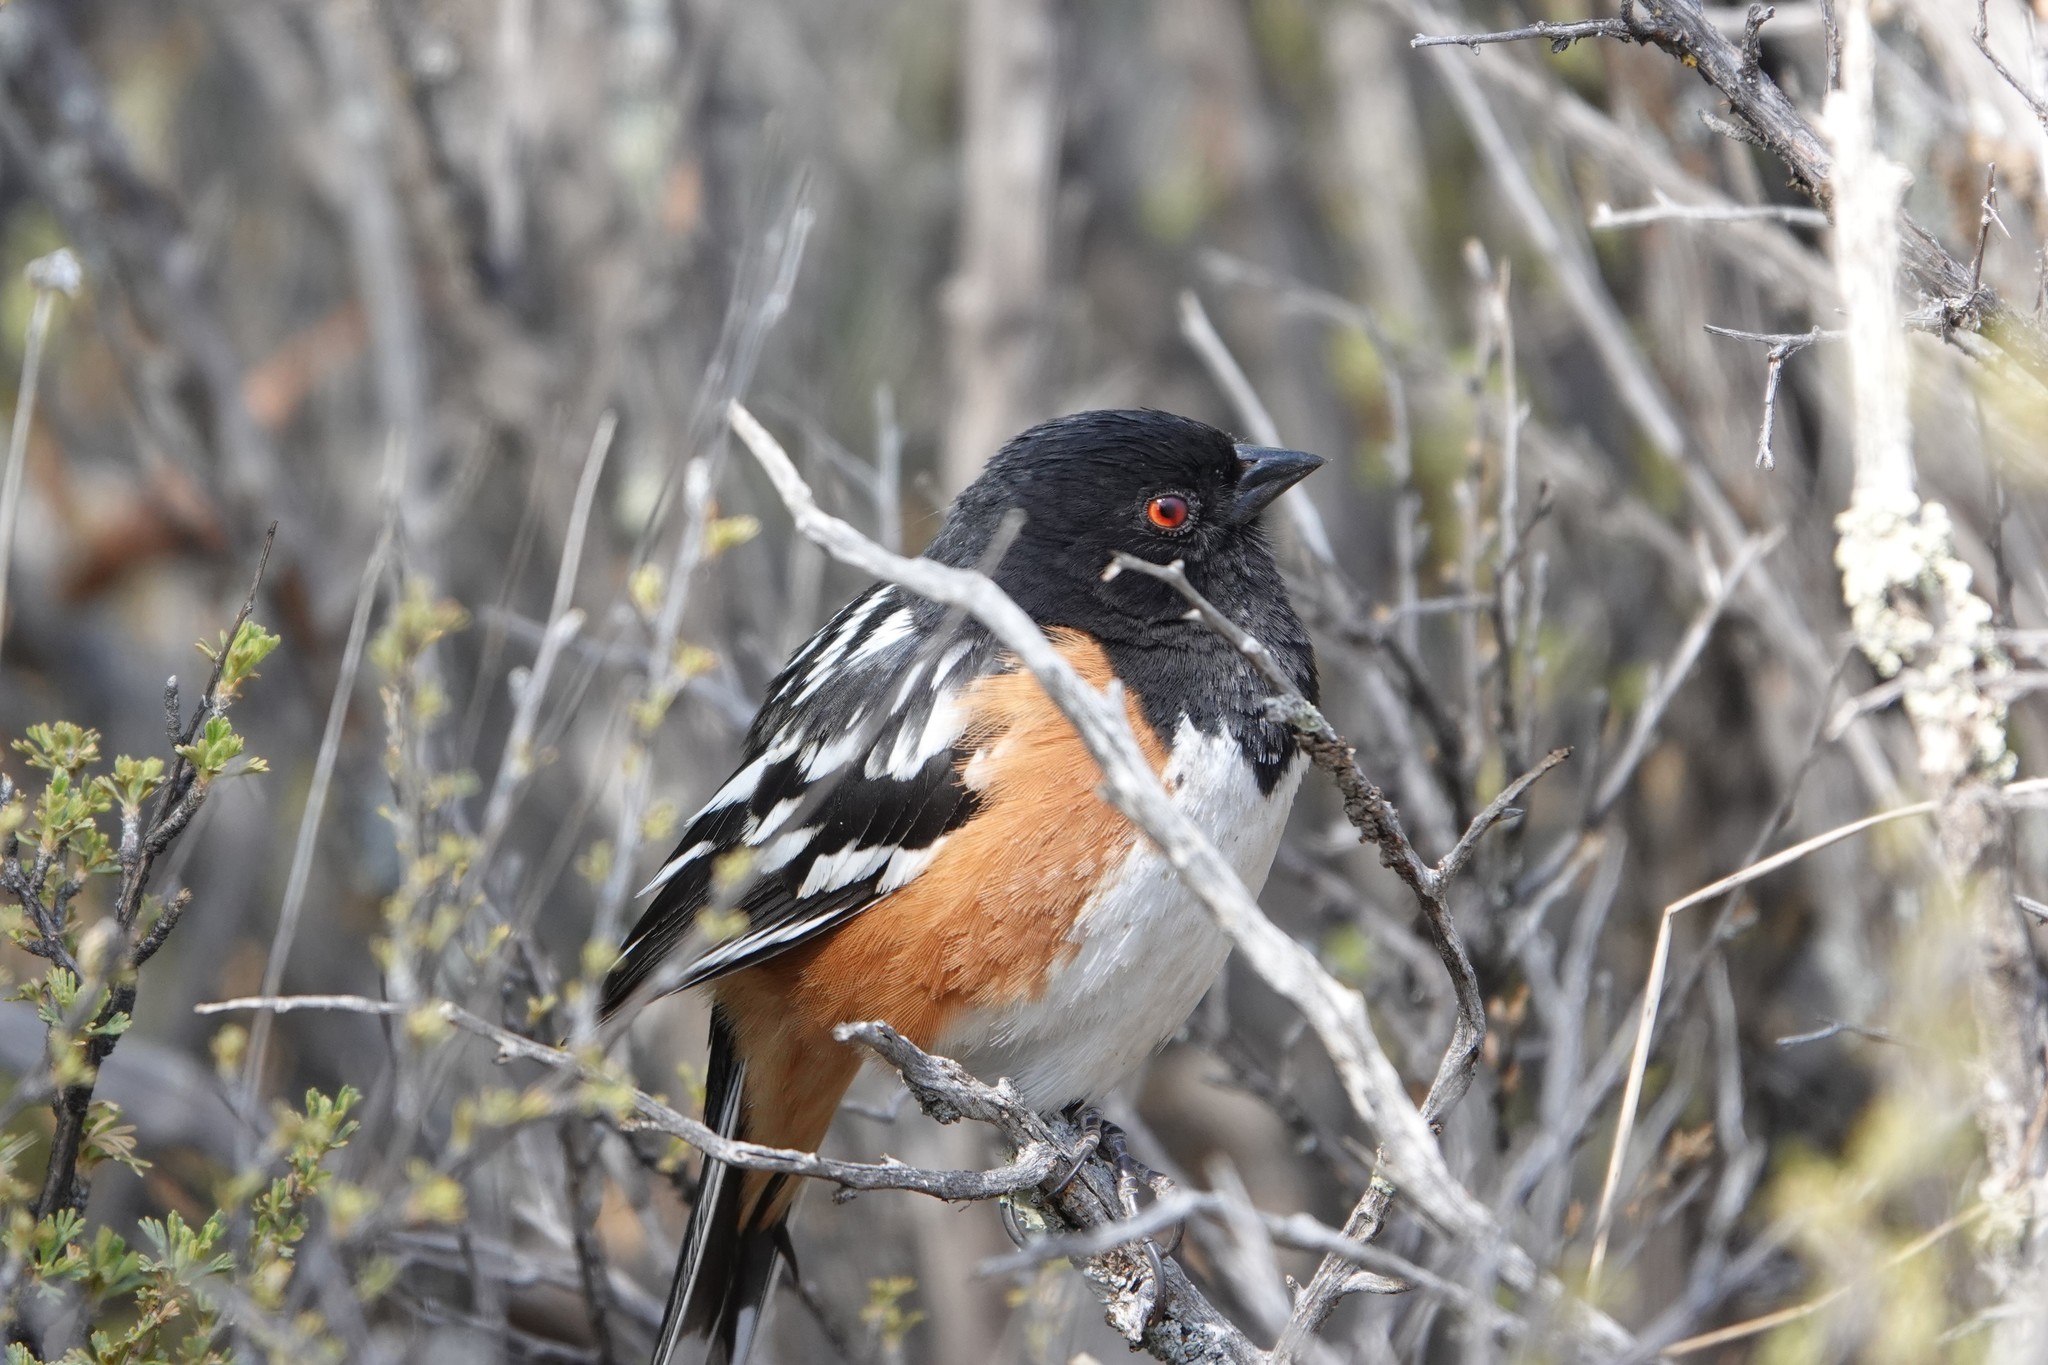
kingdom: Animalia
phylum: Chordata
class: Aves
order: Passeriformes
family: Passerellidae
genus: Pipilo
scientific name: Pipilo maculatus
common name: Spotted towhee
